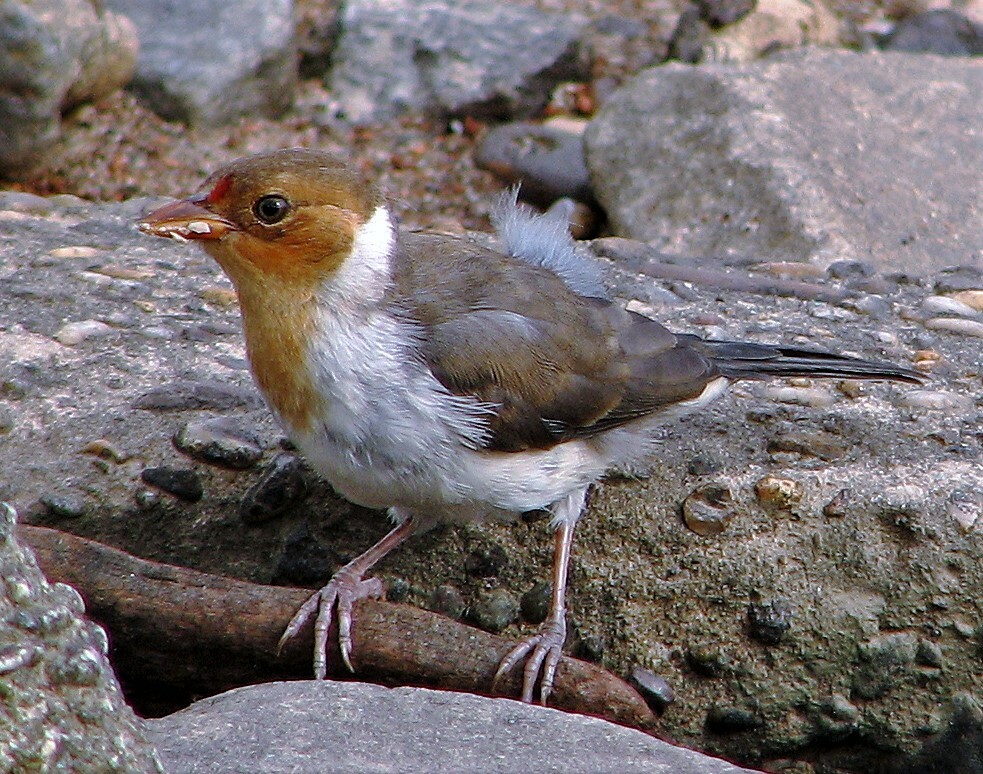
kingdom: Animalia
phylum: Chordata
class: Aves
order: Passeriformes
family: Thraupidae
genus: Paroaria
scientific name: Paroaria capitata
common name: Yellow-billed cardinal
